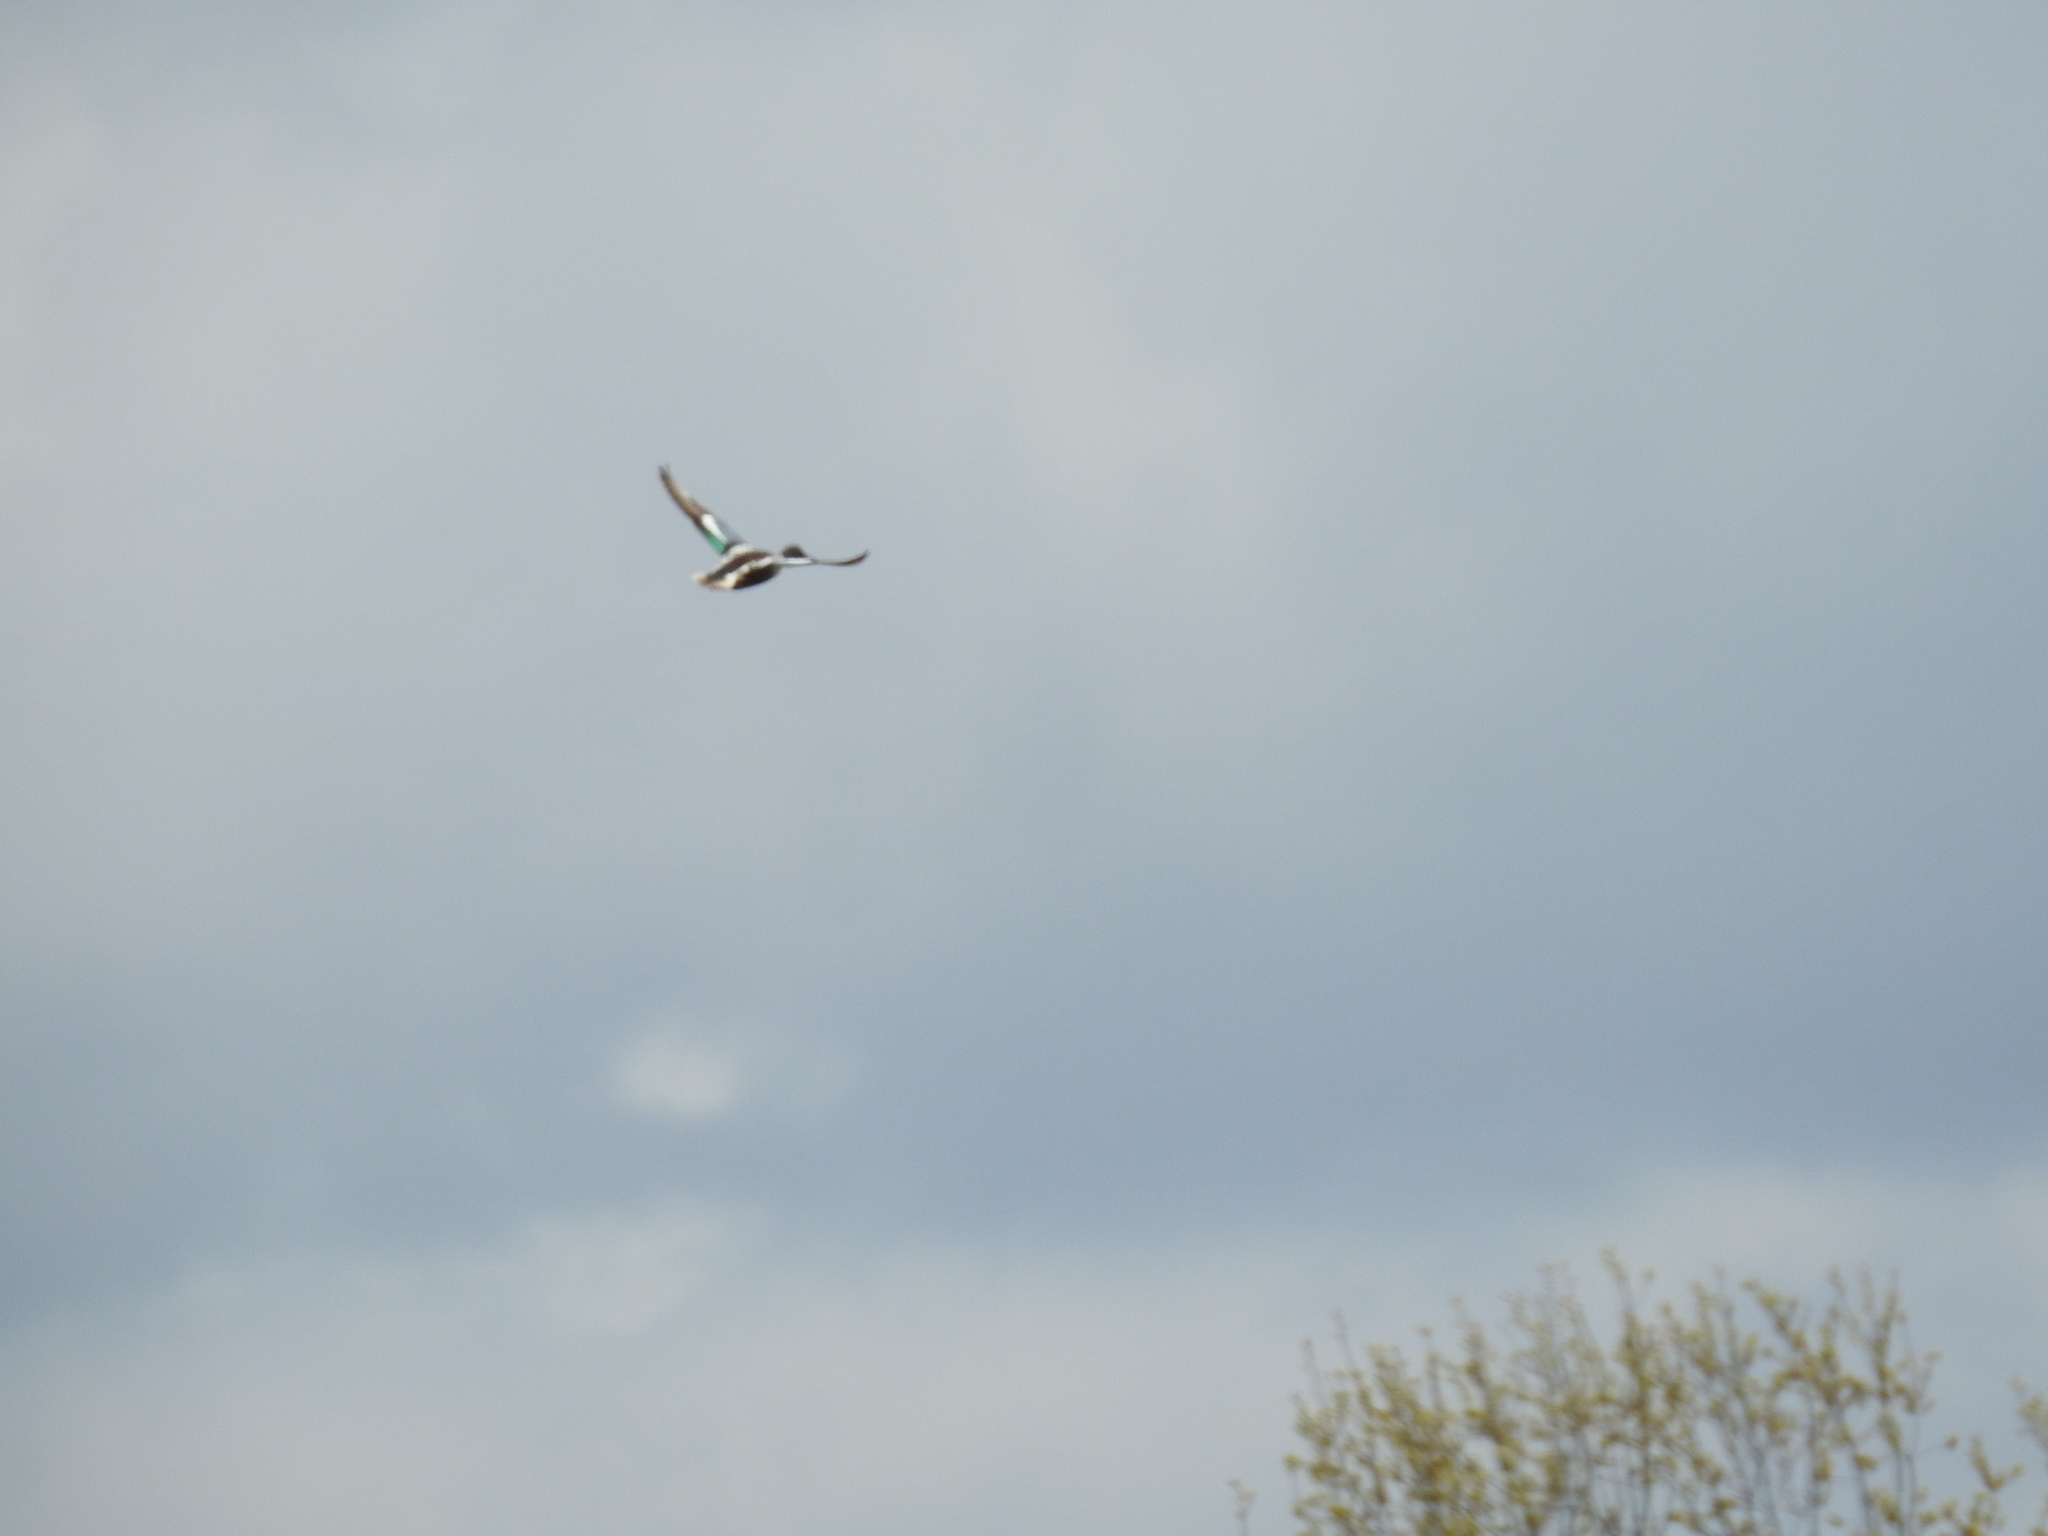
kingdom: Animalia
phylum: Chordata
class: Aves
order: Anseriformes
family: Anatidae
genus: Spatula
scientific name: Spatula clypeata
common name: Northern shoveler
